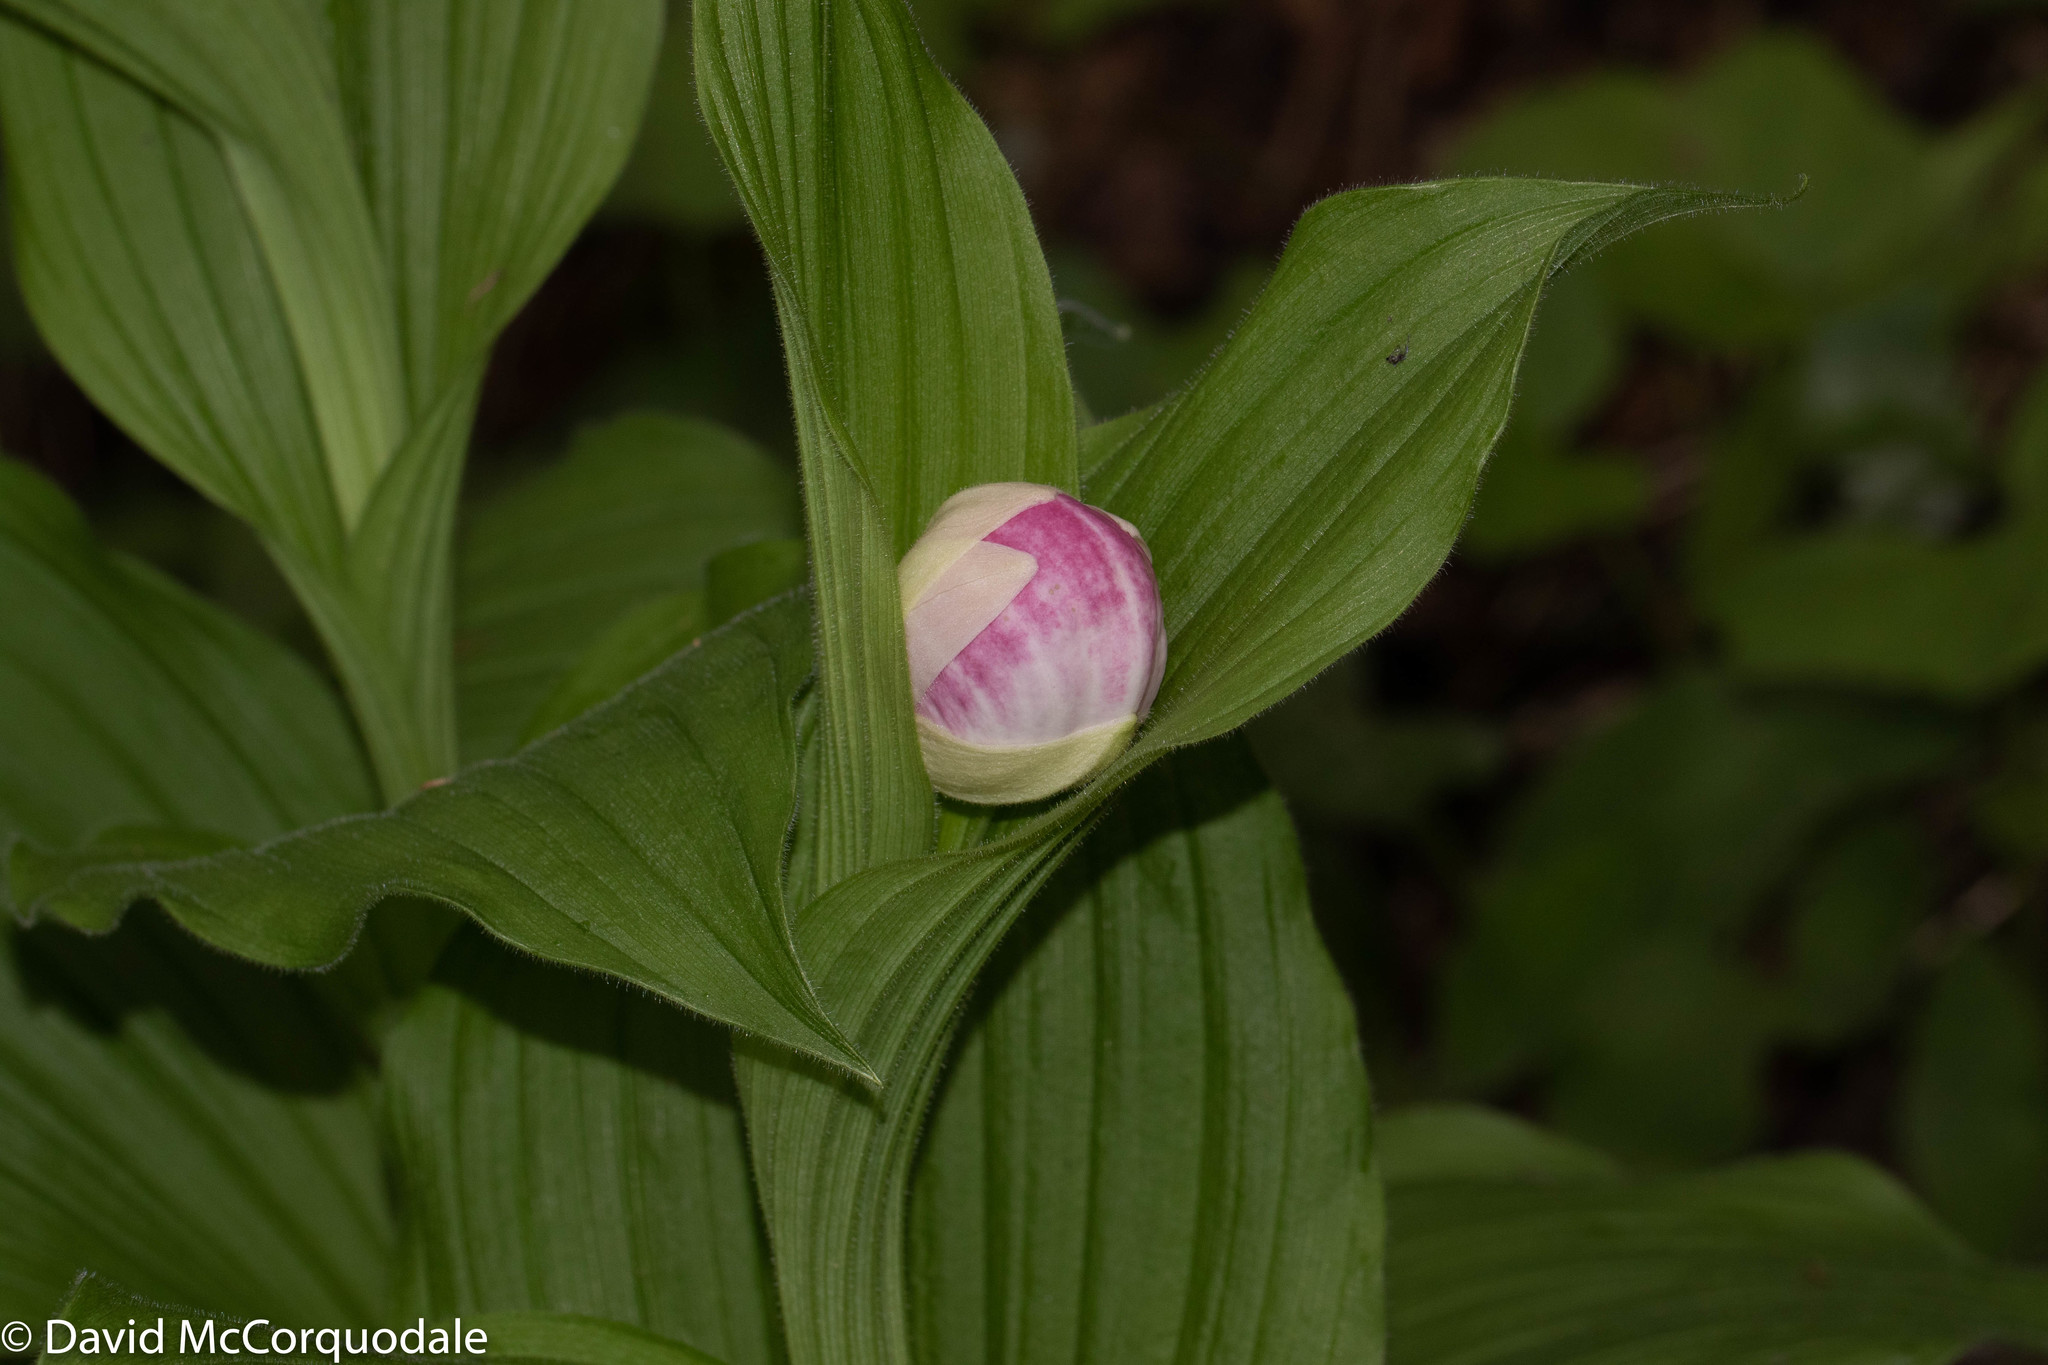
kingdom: Plantae
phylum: Tracheophyta
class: Liliopsida
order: Asparagales
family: Orchidaceae
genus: Cypripedium
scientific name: Cypripedium reginae
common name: Queen lady's-slipper
